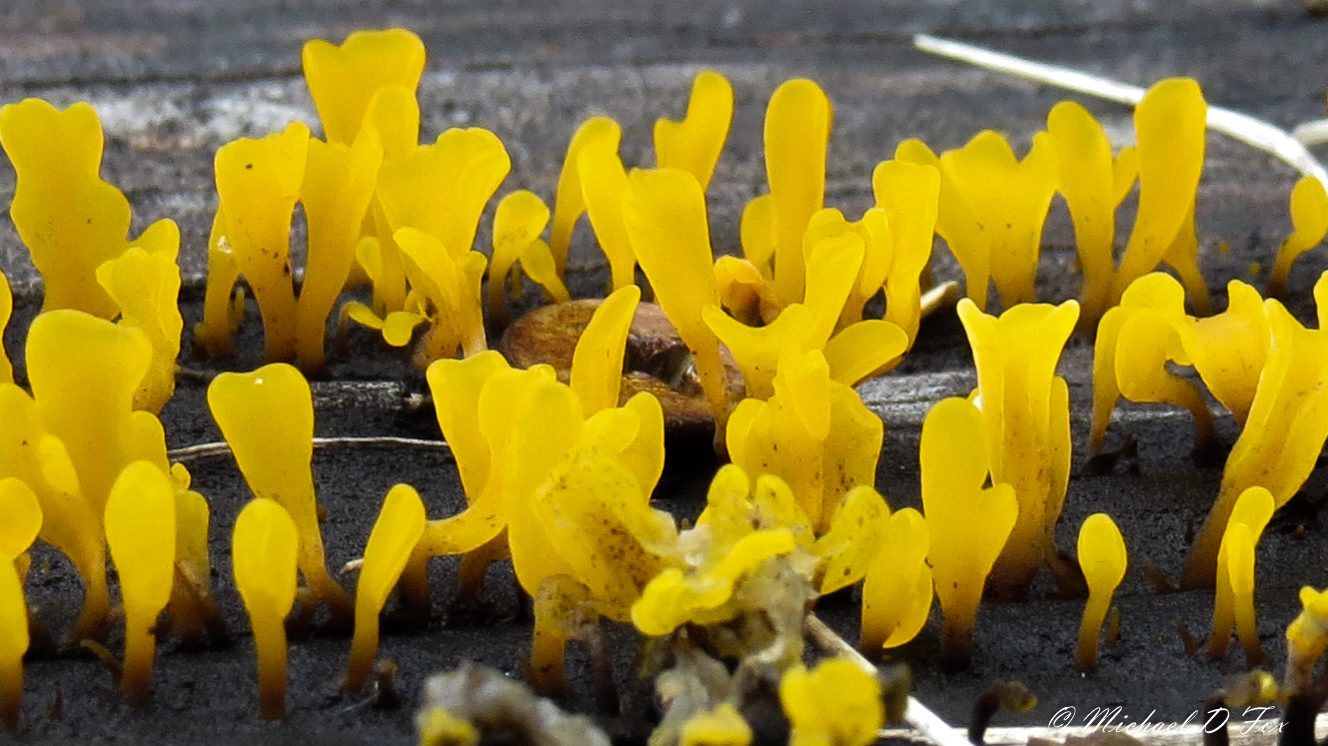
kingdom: Fungi
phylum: Basidiomycota
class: Dacrymycetes
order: Dacrymycetales
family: Dacrymycetaceae
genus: Dacrymyces
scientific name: Dacrymyces spathularius
